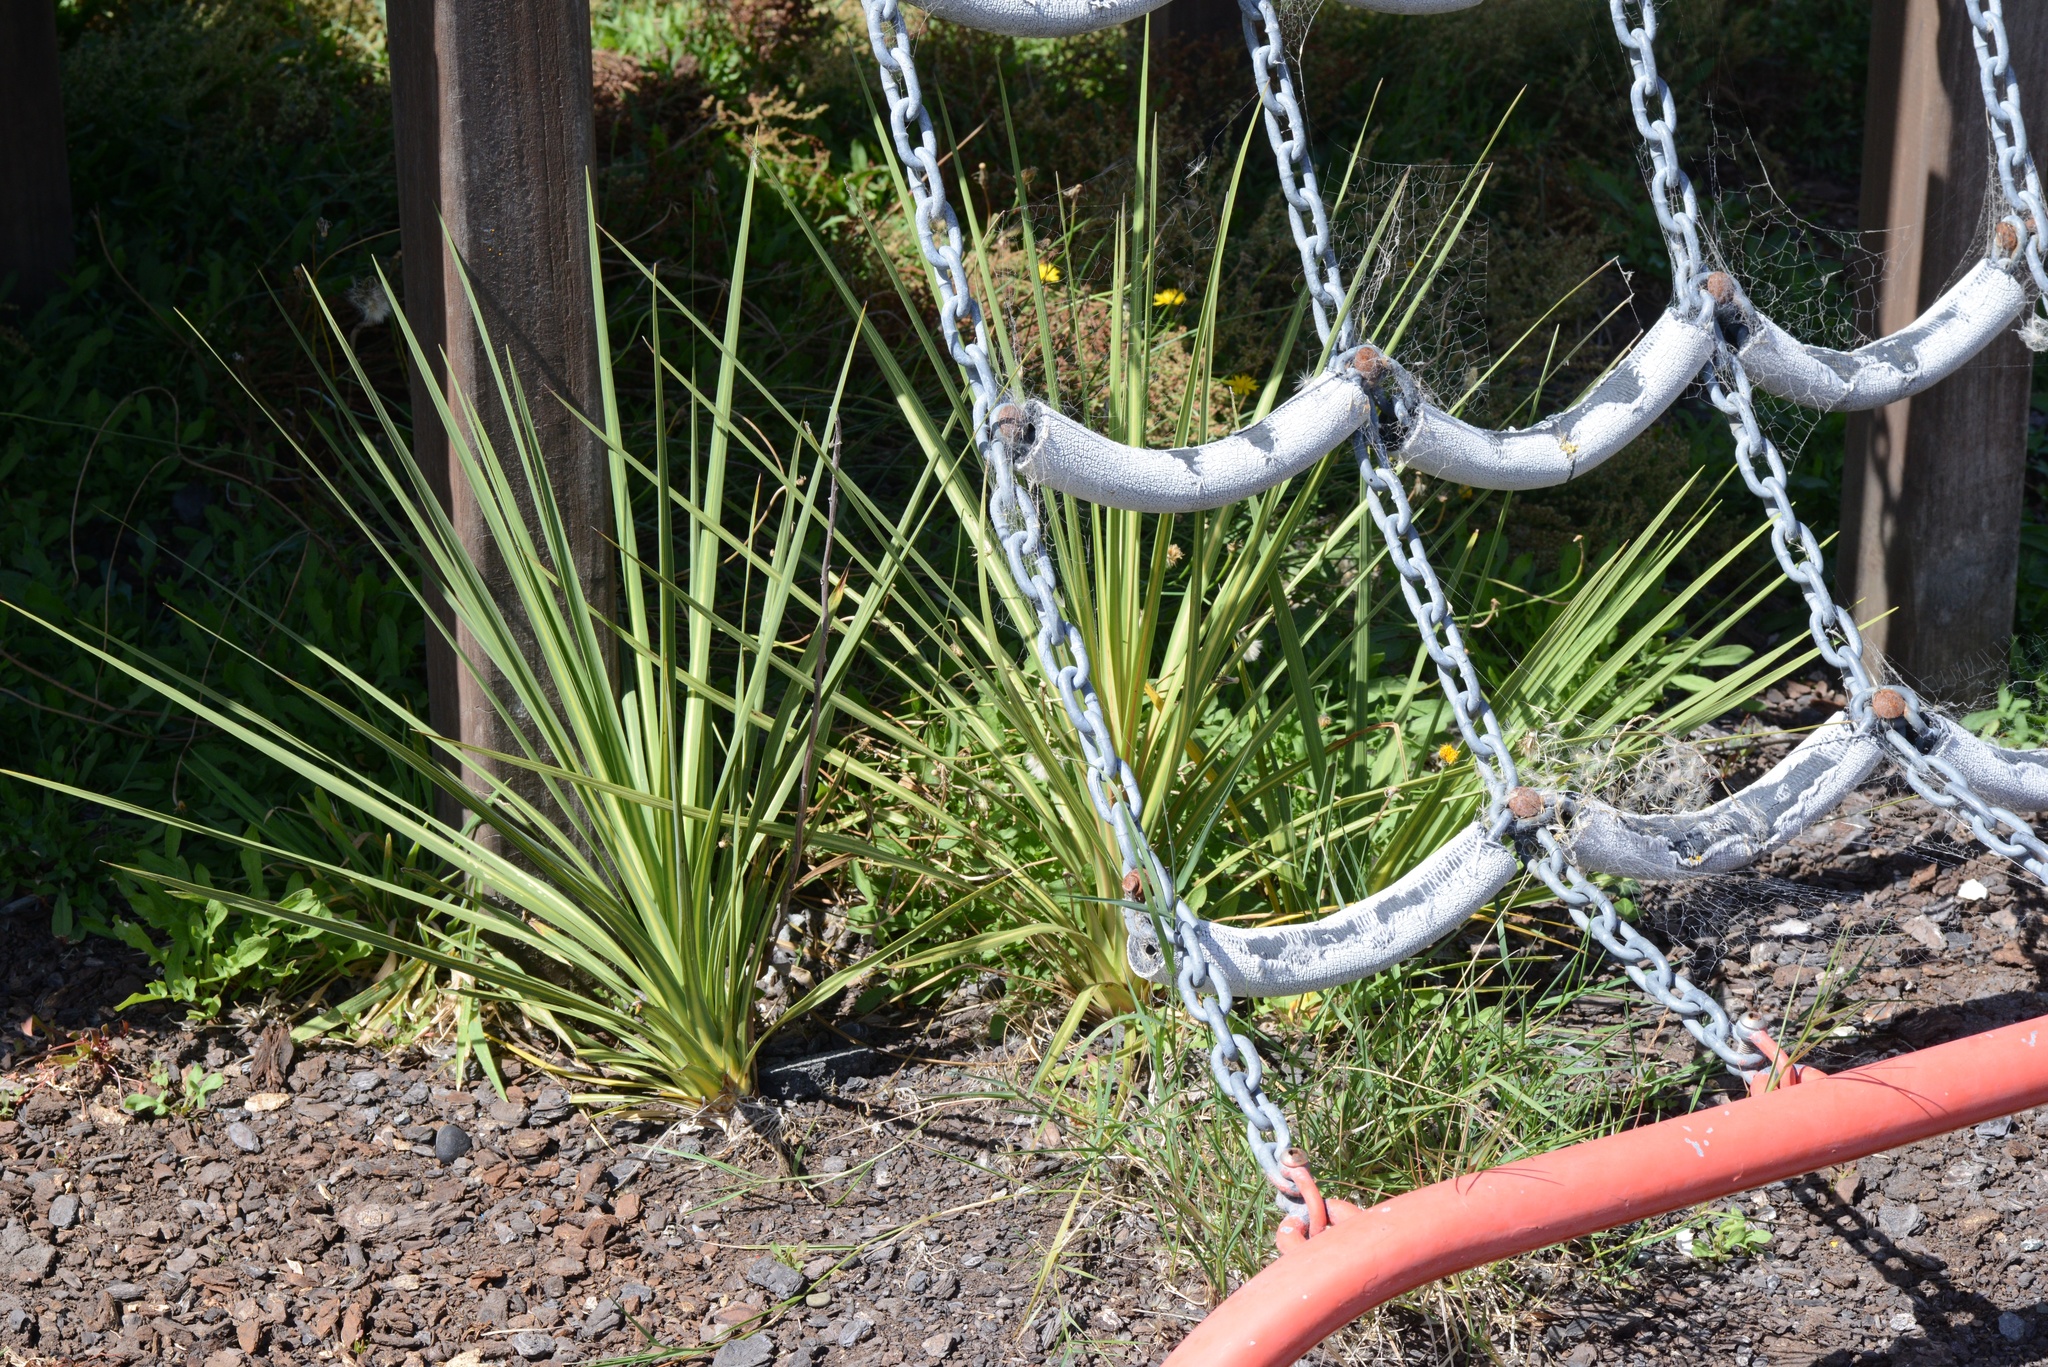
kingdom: Plantae
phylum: Tracheophyta
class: Liliopsida
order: Asparagales
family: Asparagaceae
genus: Cordyline
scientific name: Cordyline australis
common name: Cabbage-palm
